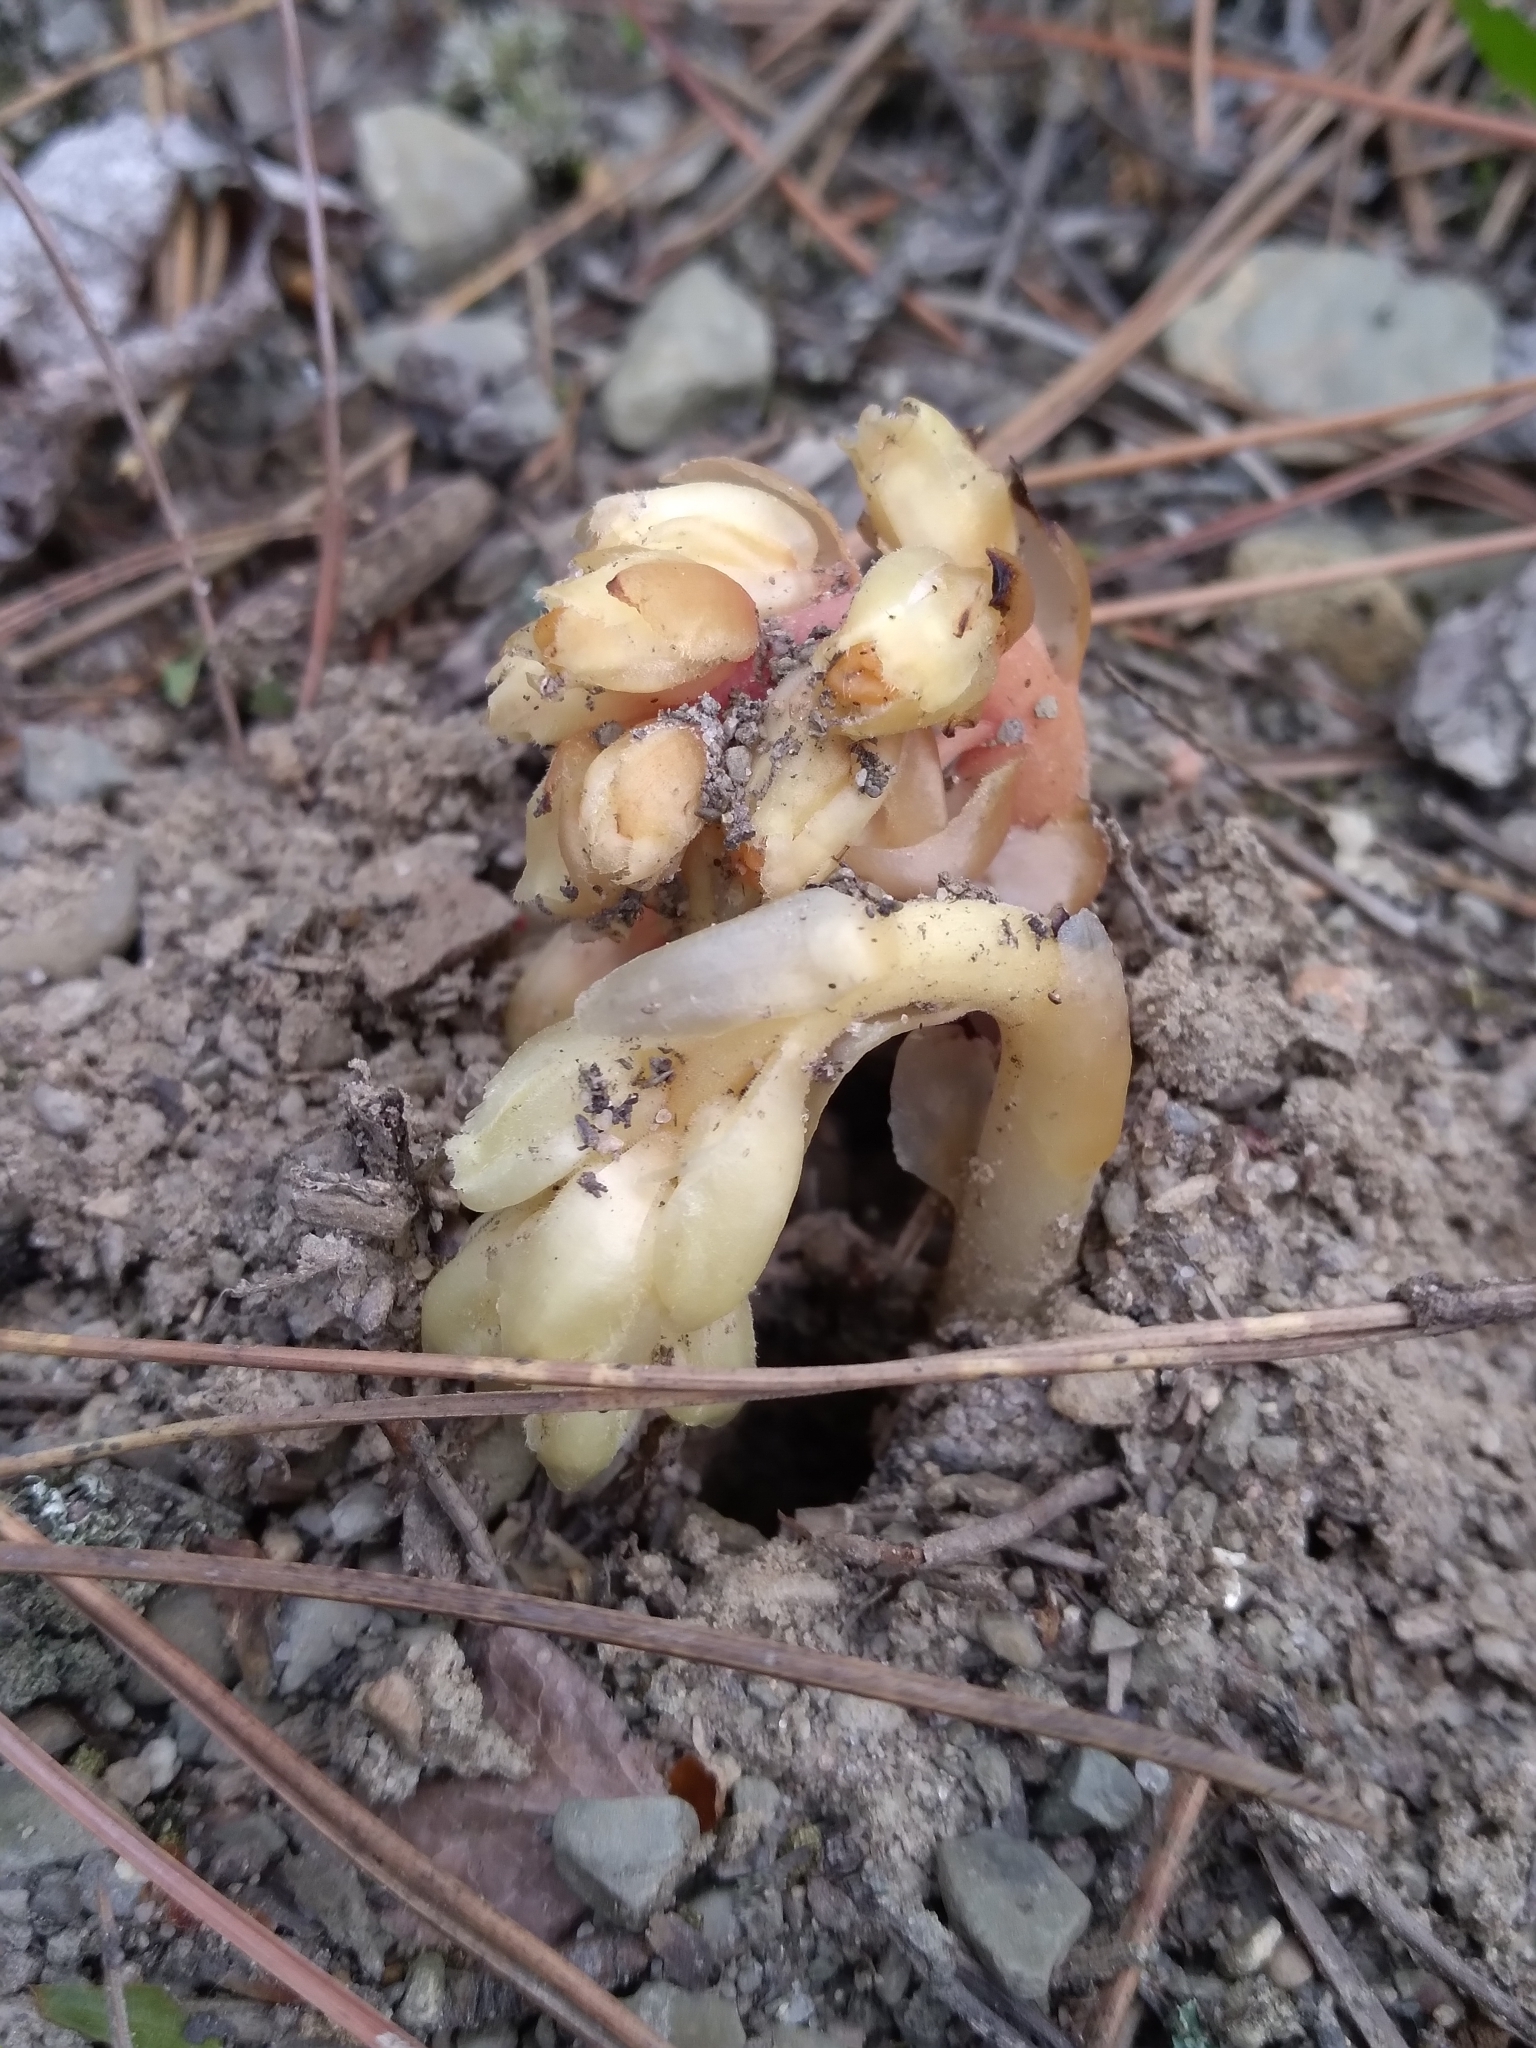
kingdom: Plantae
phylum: Tracheophyta
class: Magnoliopsida
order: Ericales
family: Ericaceae
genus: Hypopitys
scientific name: Hypopitys monotropa
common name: Yellow bird's-nest
